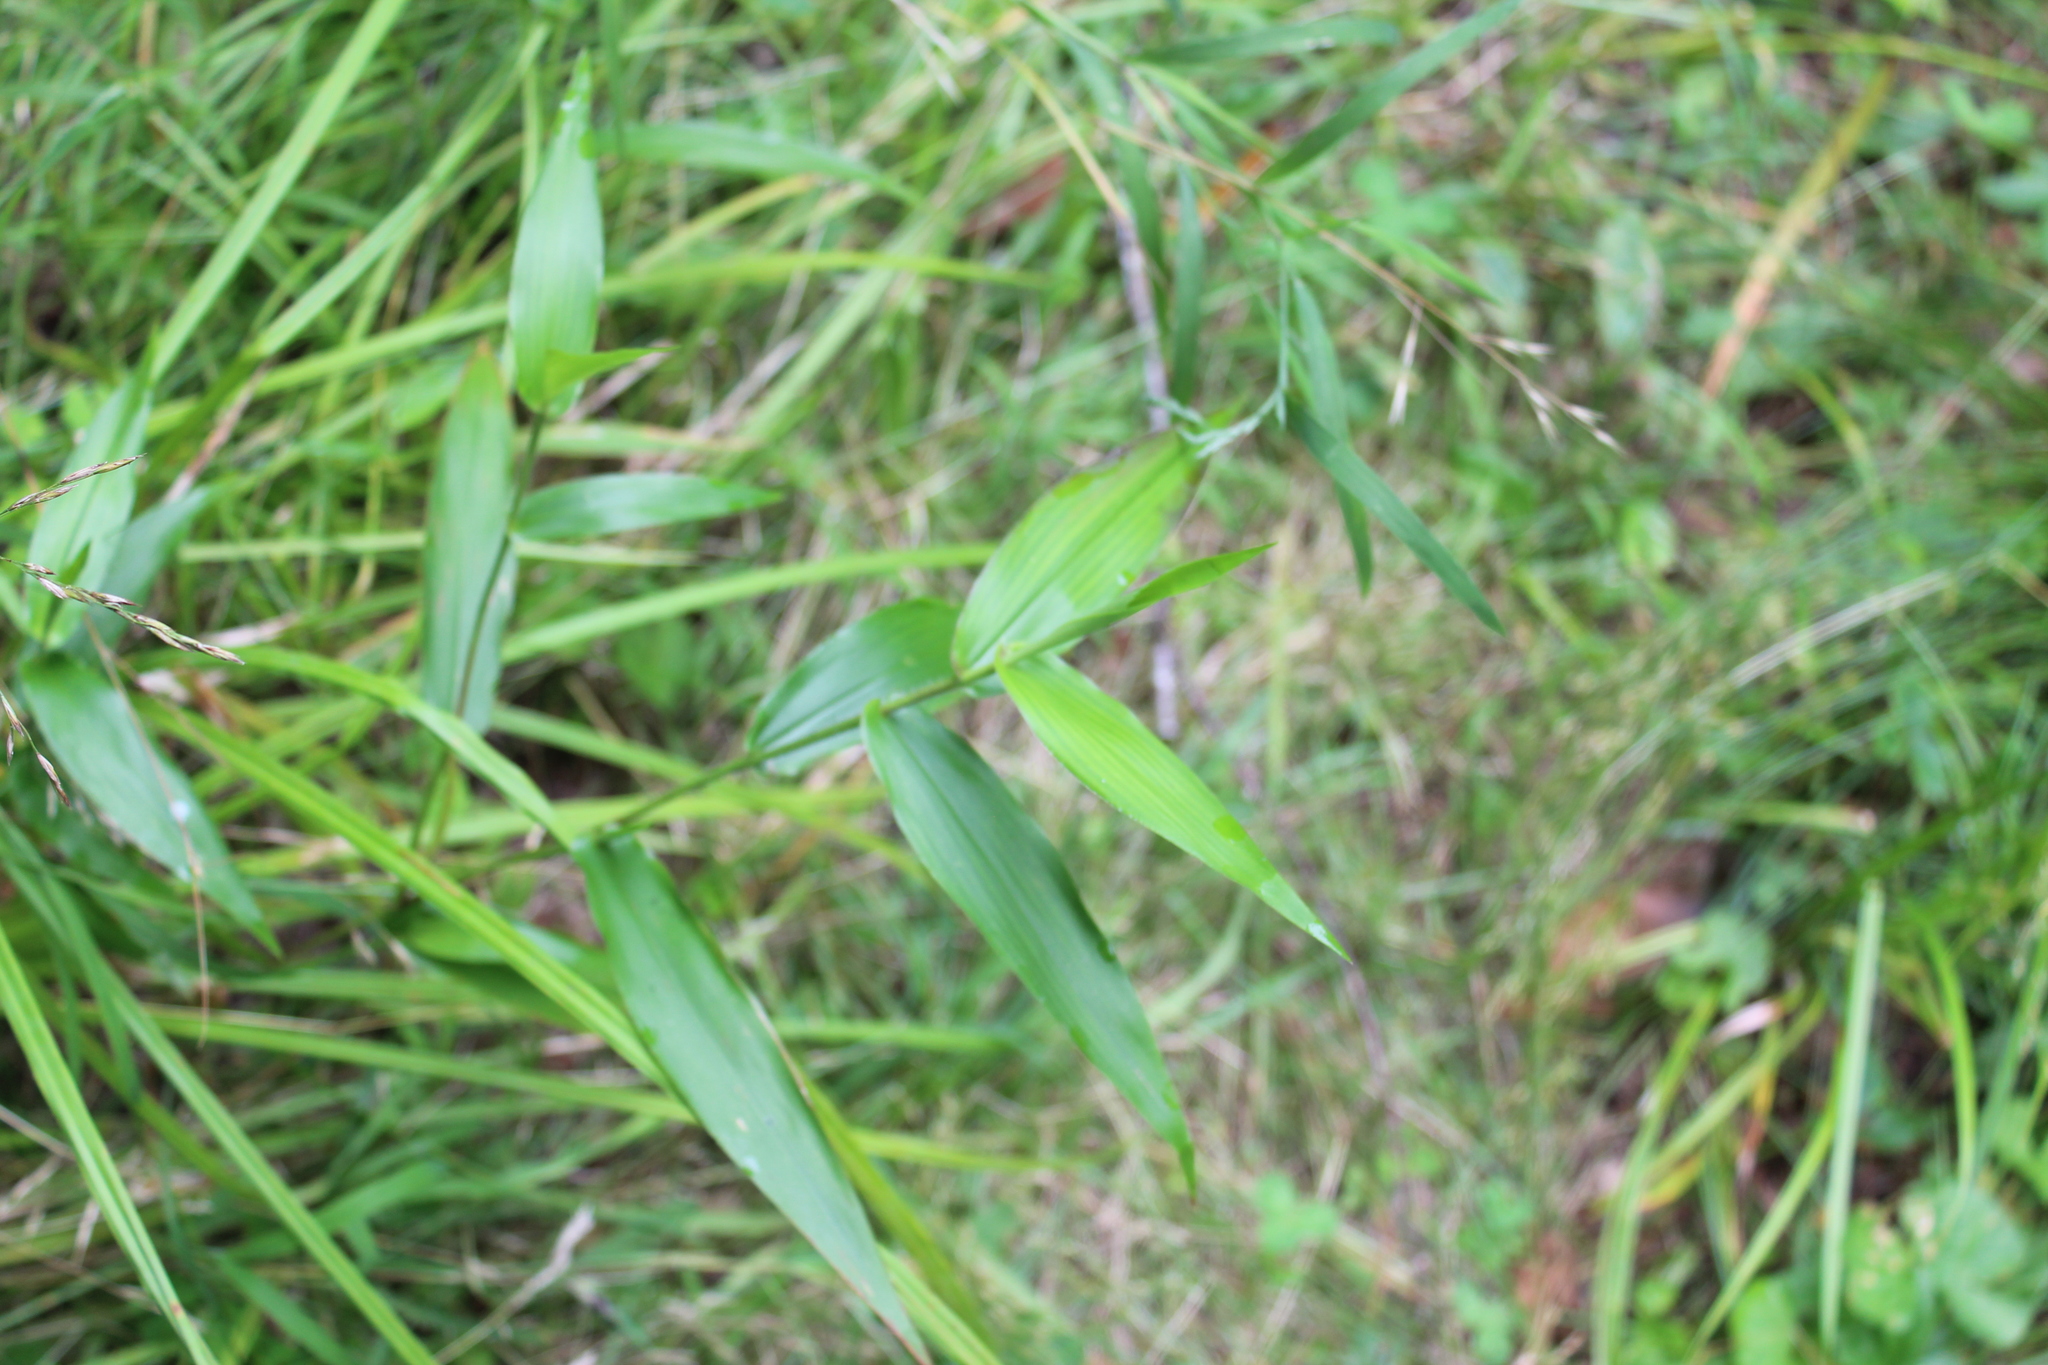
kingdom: Plantae
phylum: Tracheophyta
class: Liliopsida
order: Poales
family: Poaceae
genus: Dichanthelium
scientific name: Dichanthelium clandestinum
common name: Deer-tongue grass
